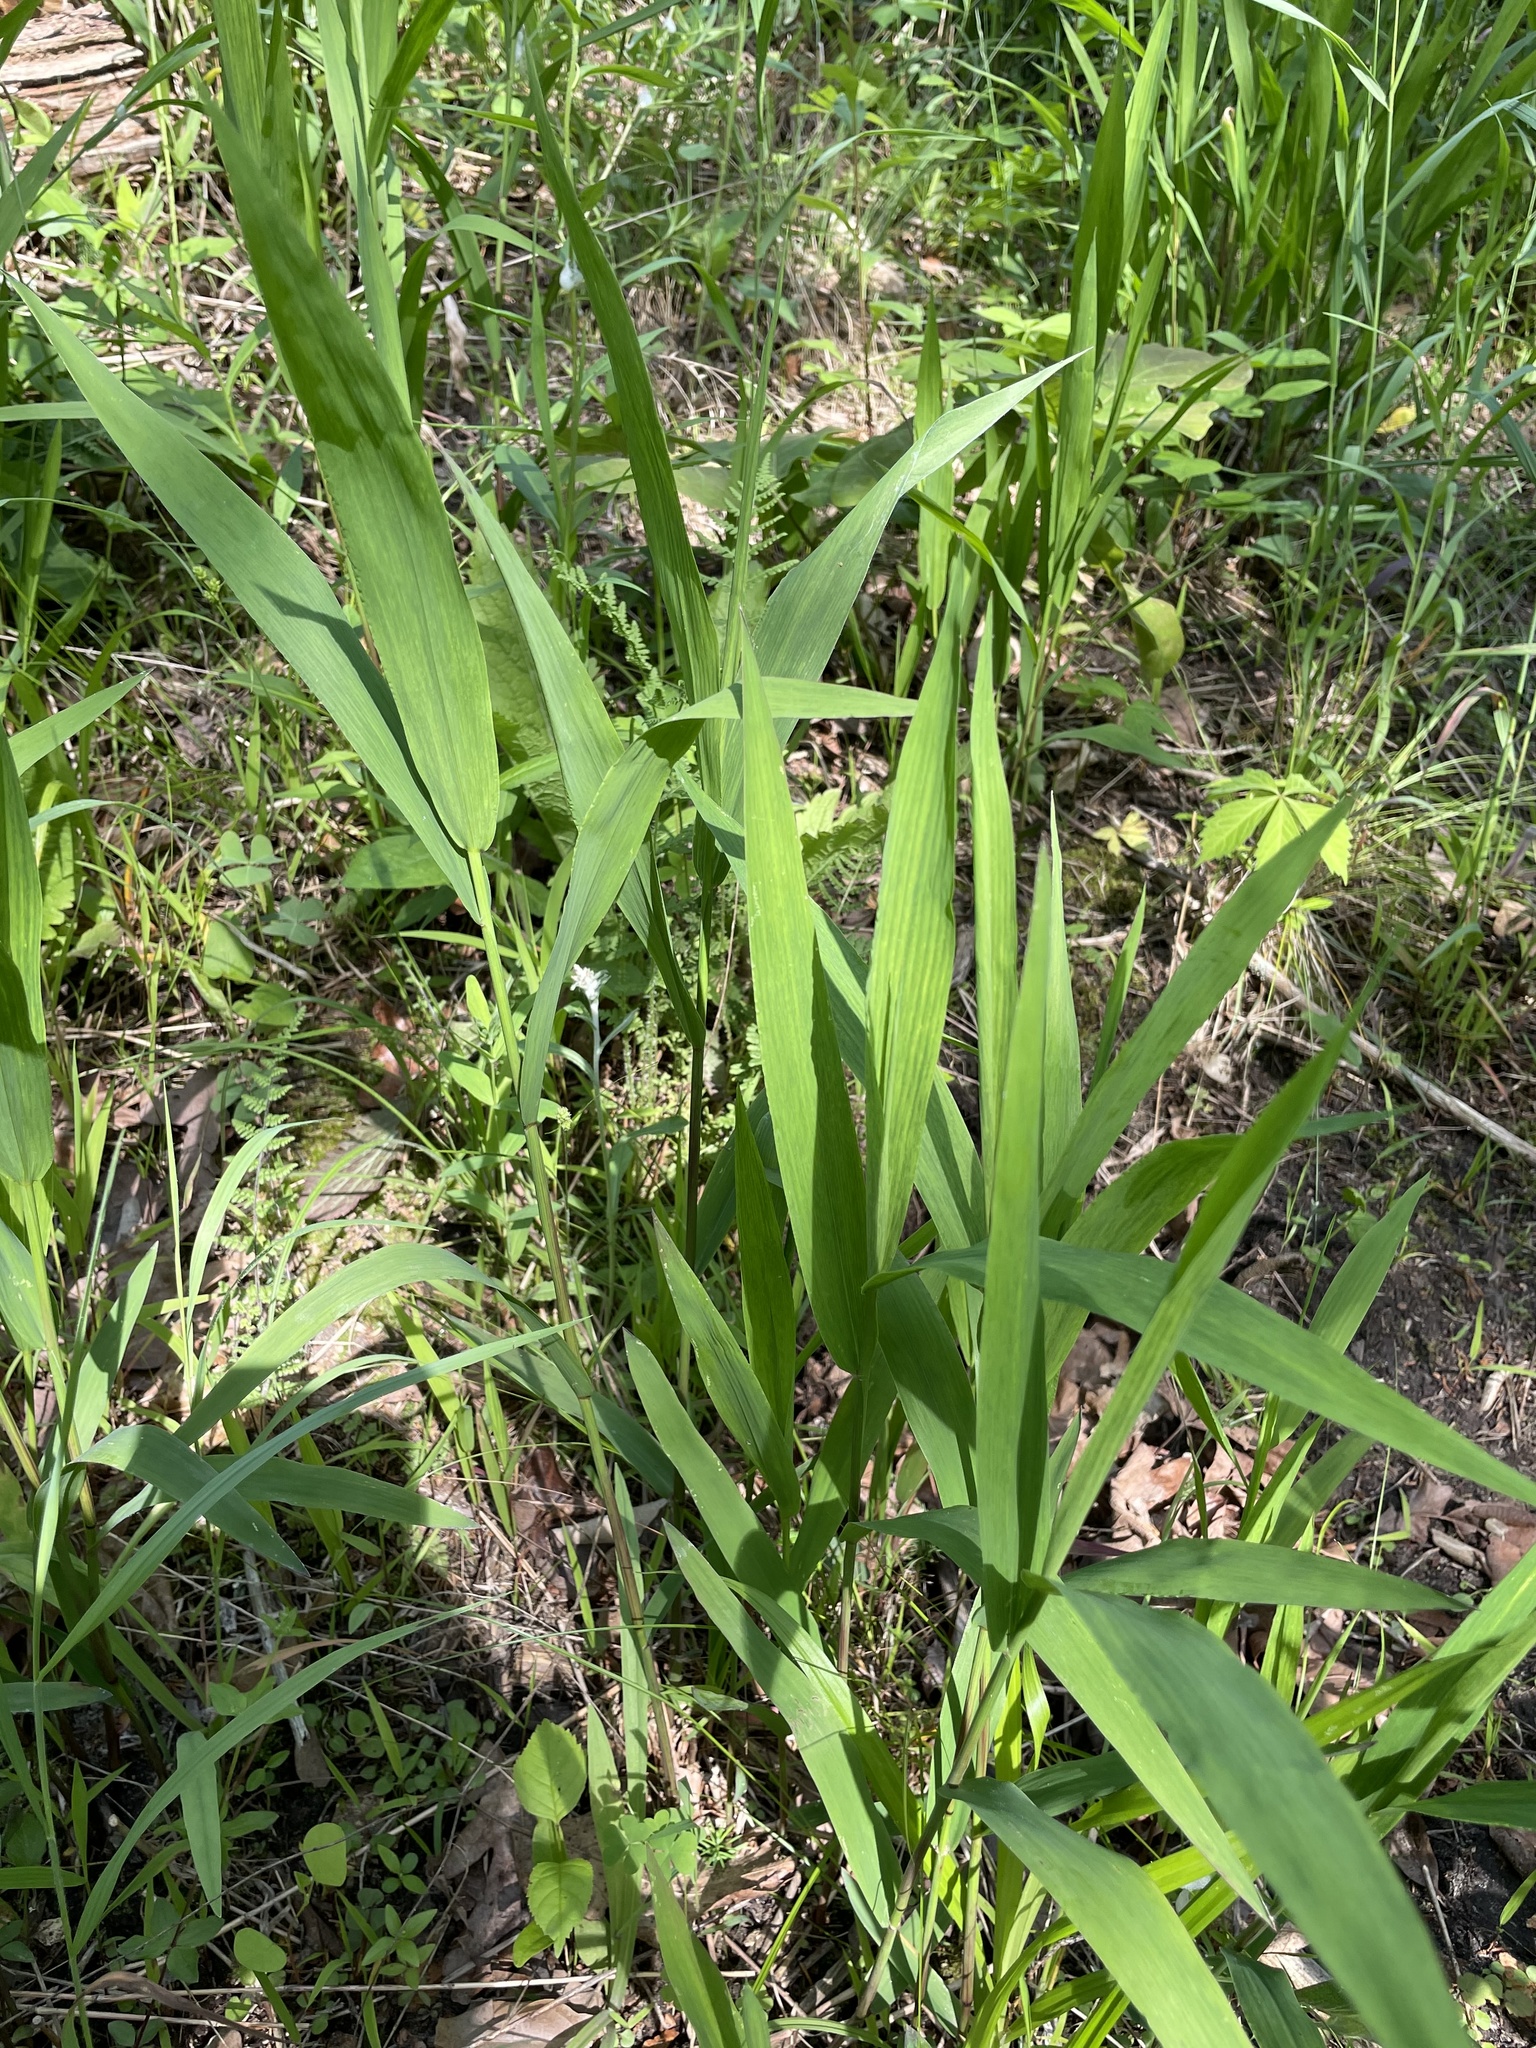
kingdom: Plantae
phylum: Tracheophyta
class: Liliopsida
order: Poales
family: Poaceae
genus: Chasmanthium
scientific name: Chasmanthium latifolium
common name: Broad-leaved chasmanthium
